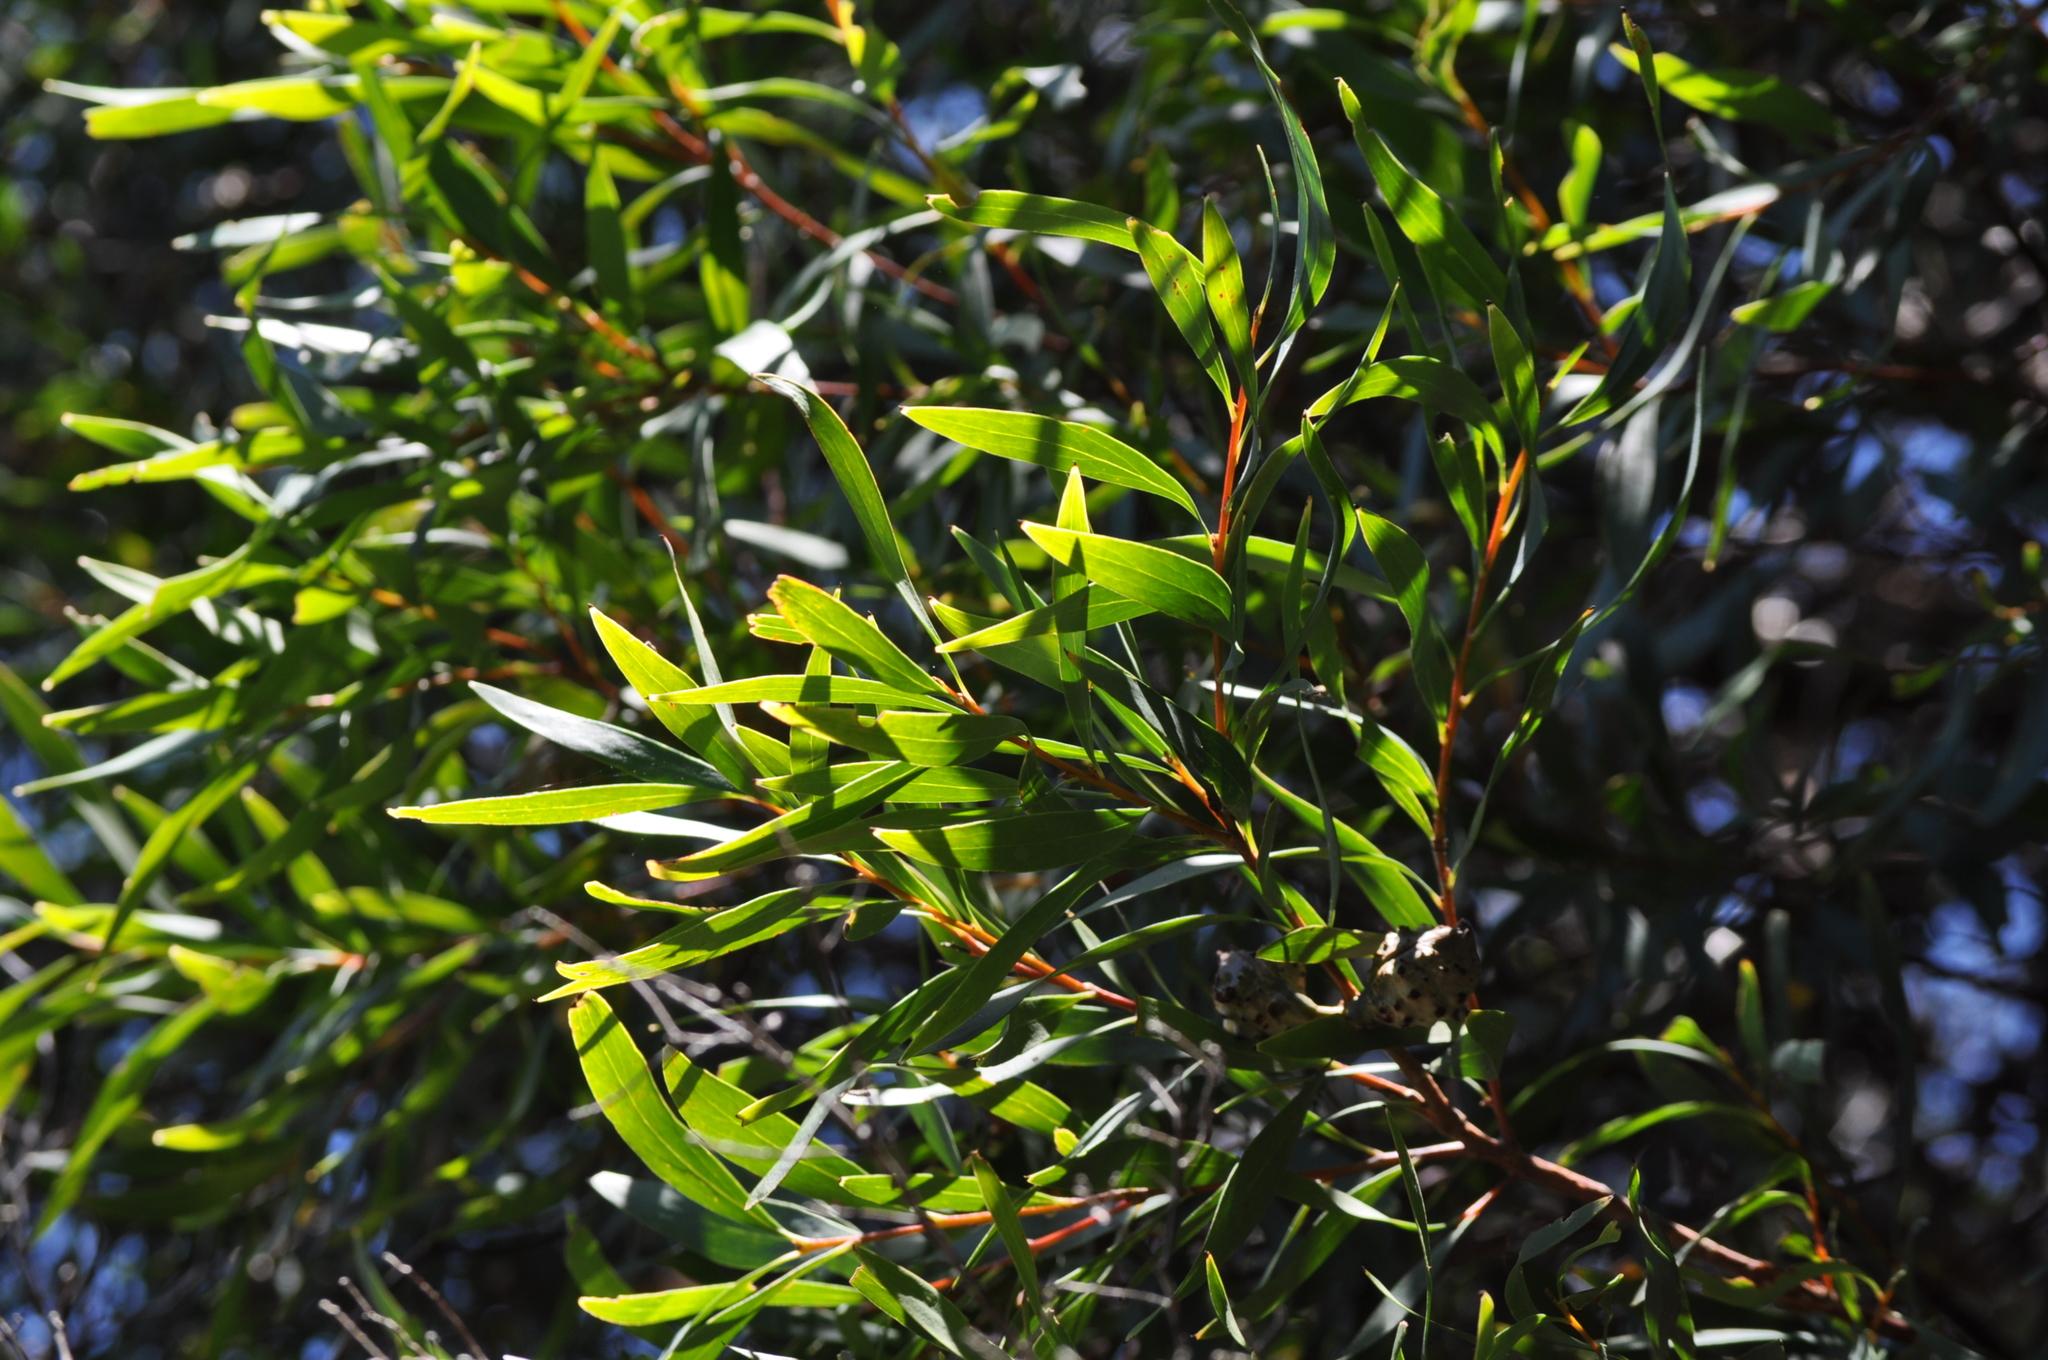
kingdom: Plantae
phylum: Tracheophyta
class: Magnoliopsida
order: Proteales
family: Proteaceae
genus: Hakea
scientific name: Hakea salicifolia
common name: Willow hakea
